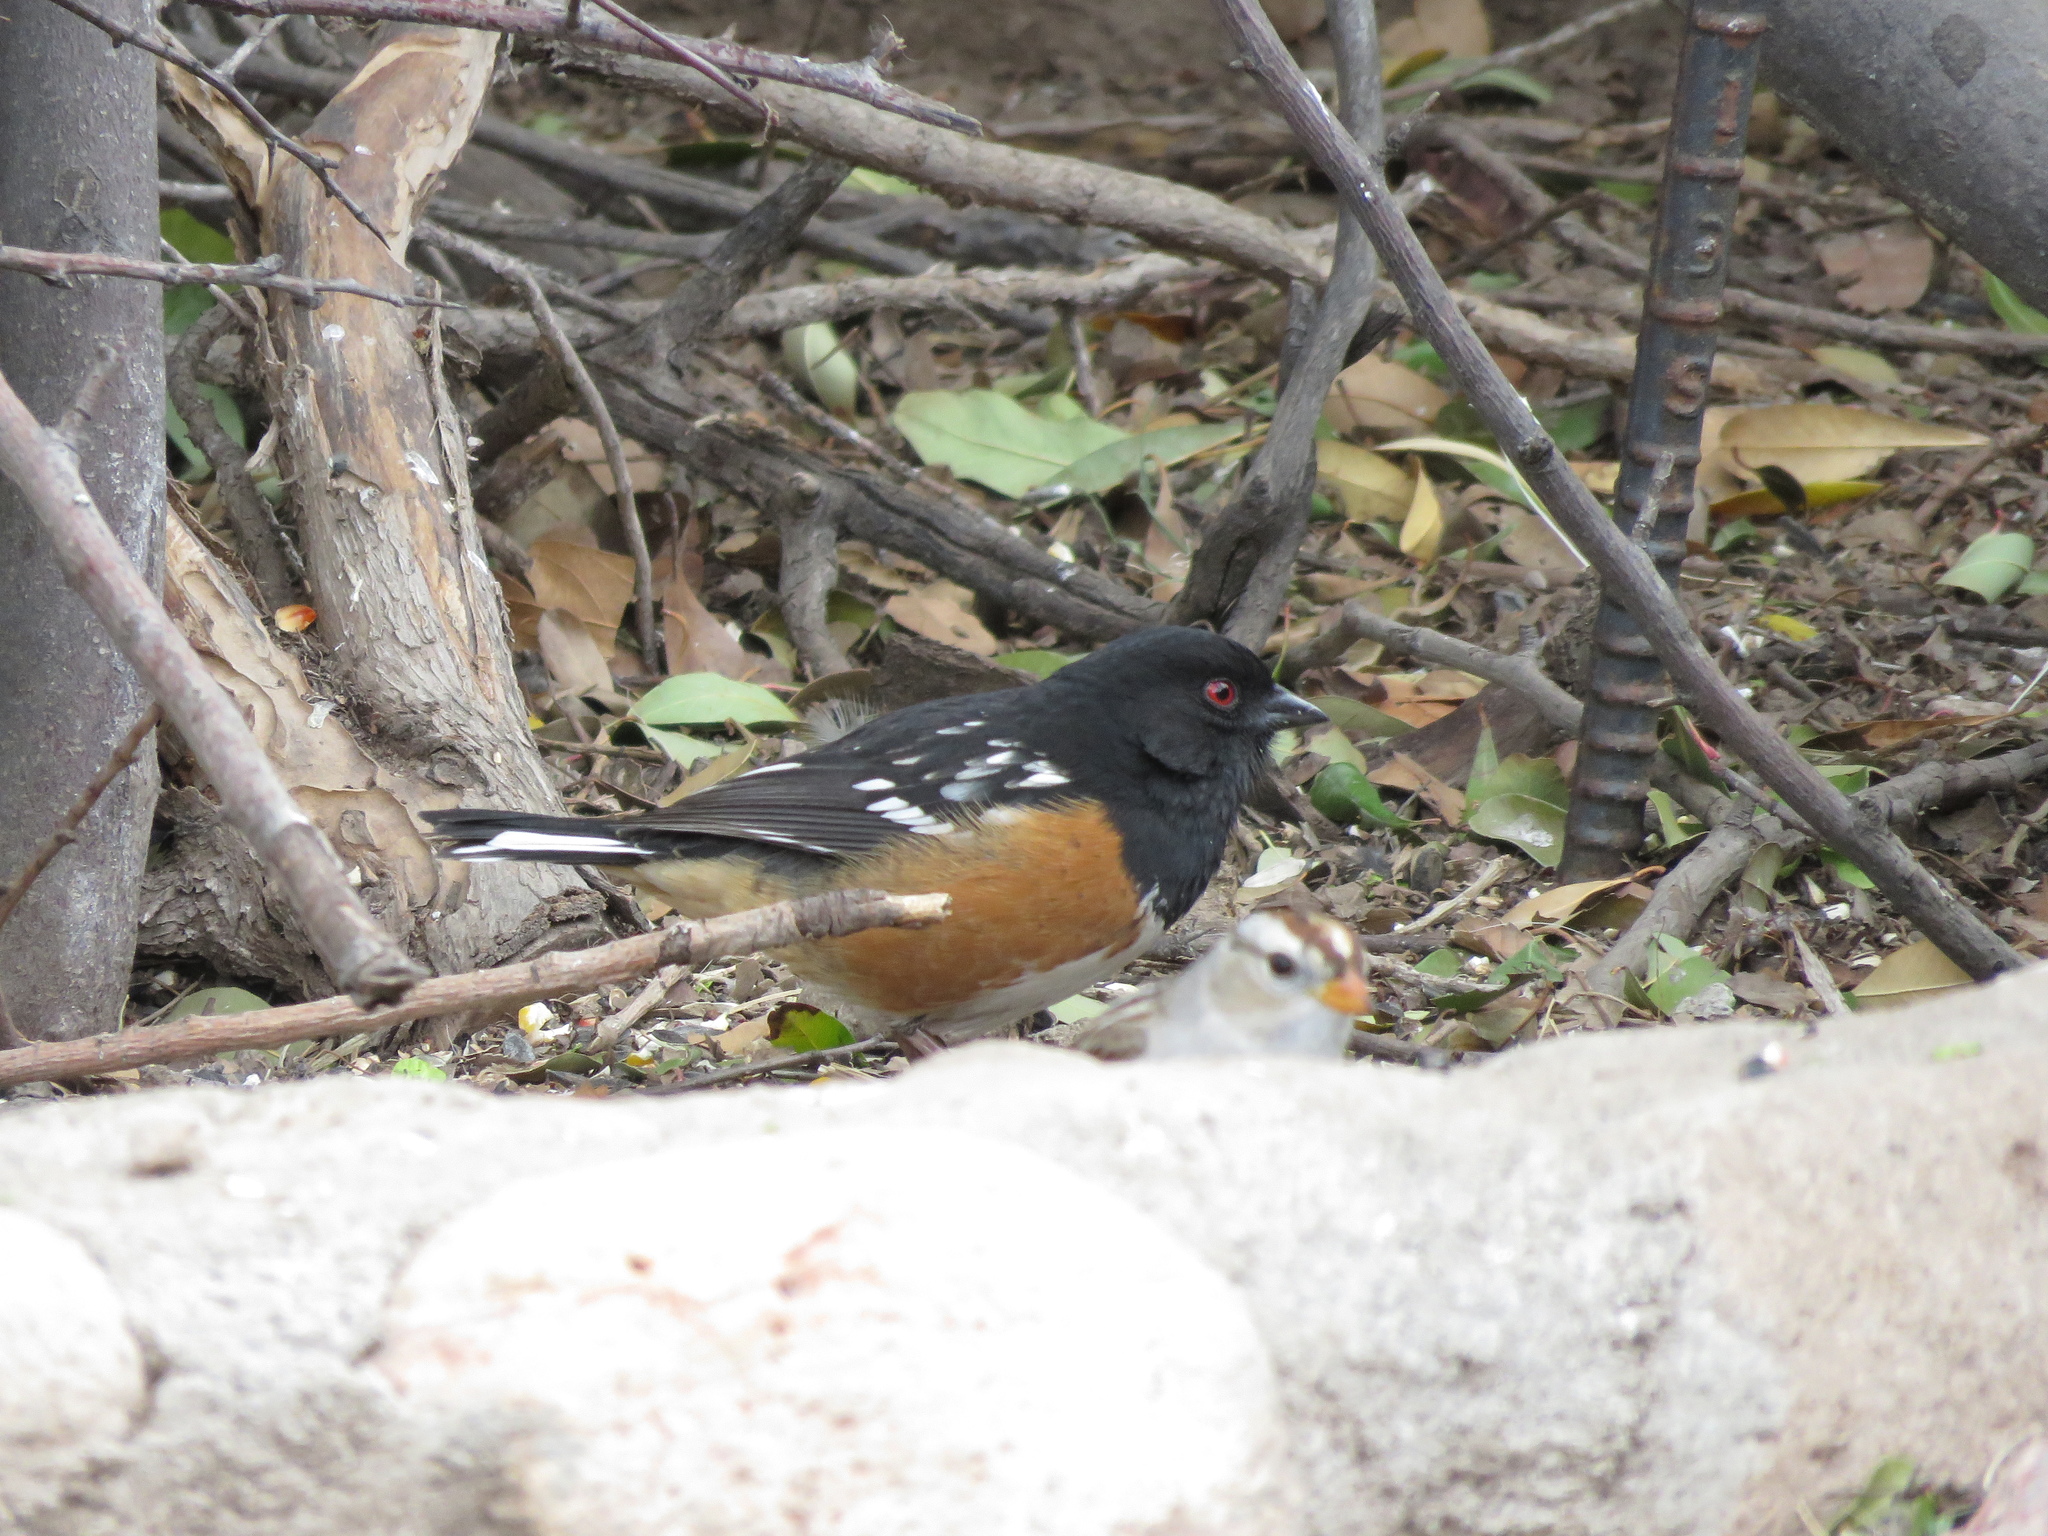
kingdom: Animalia
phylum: Chordata
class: Aves
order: Passeriformes
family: Passerellidae
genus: Pipilo
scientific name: Pipilo maculatus
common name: Spotted towhee
